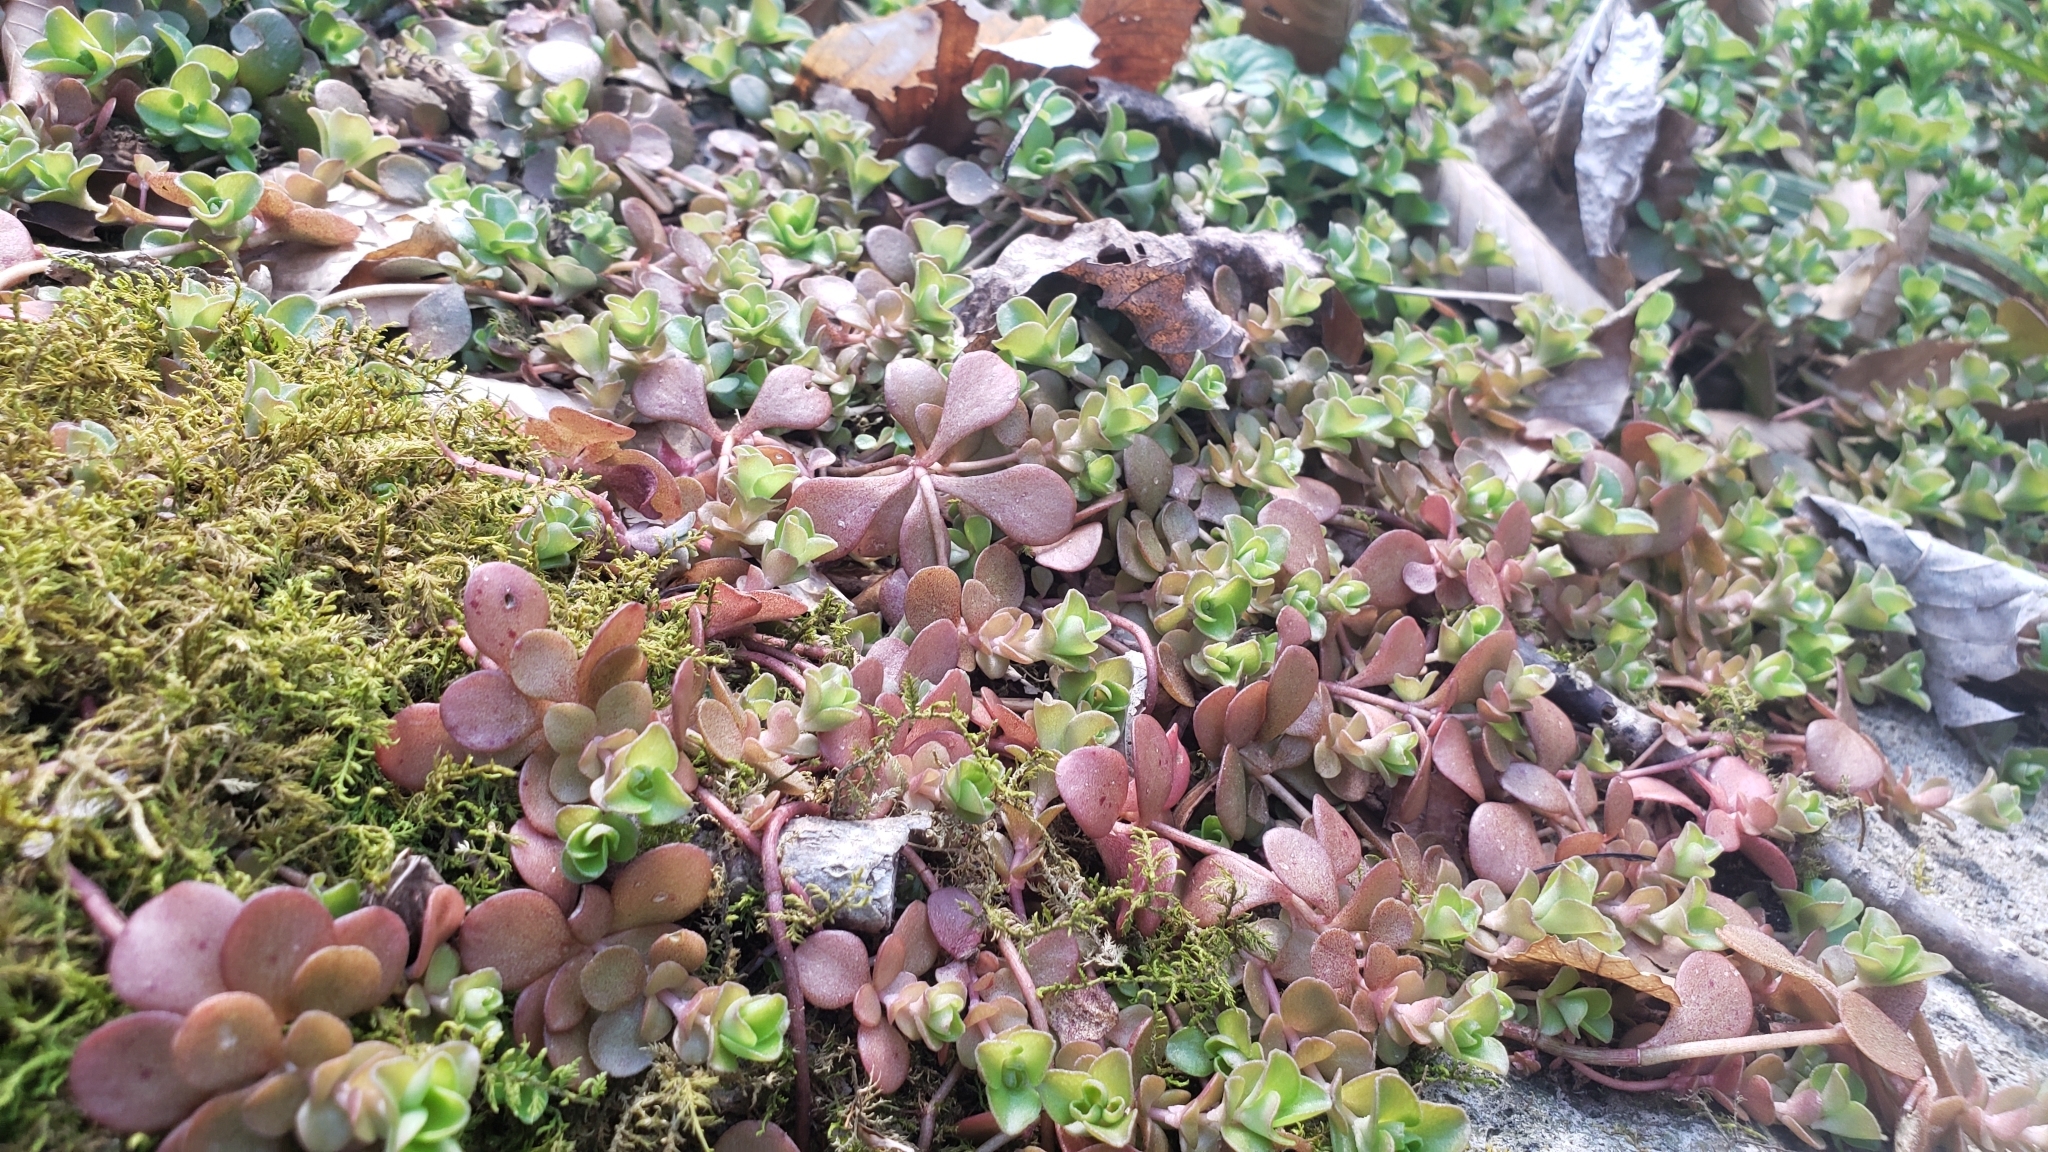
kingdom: Plantae
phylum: Tracheophyta
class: Magnoliopsida
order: Saxifragales
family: Crassulaceae
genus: Sedum
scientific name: Sedum ternatum
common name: Wild stonecrop
